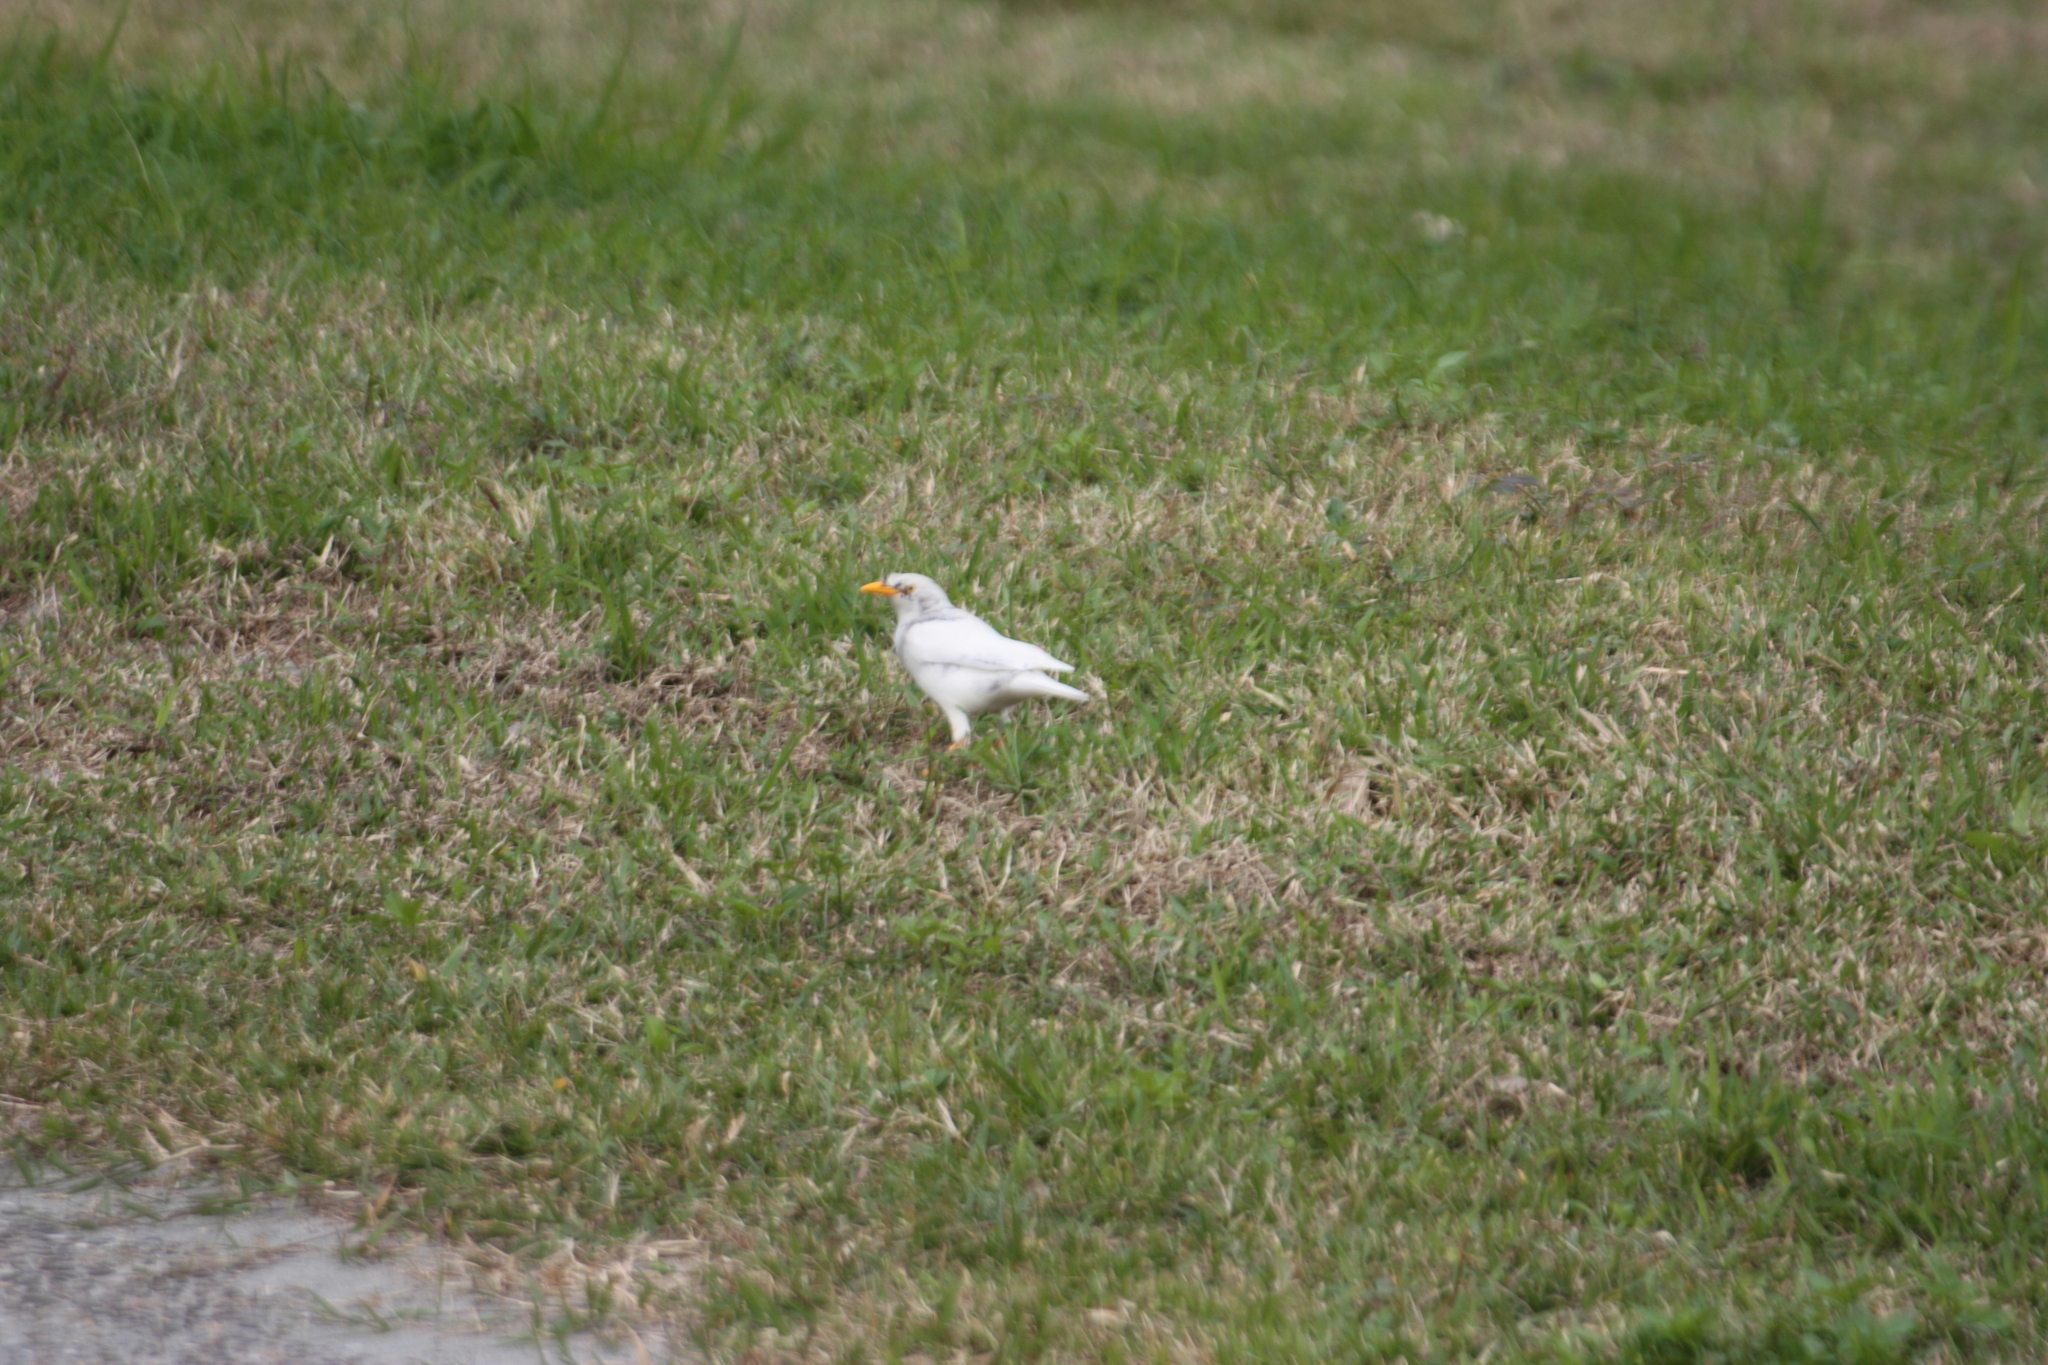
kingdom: Animalia
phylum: Chordata
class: Aves
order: Passeriformes
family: Sturnidae
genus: Acridotheres
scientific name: Acridotheres javanicus
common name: Javan myna
